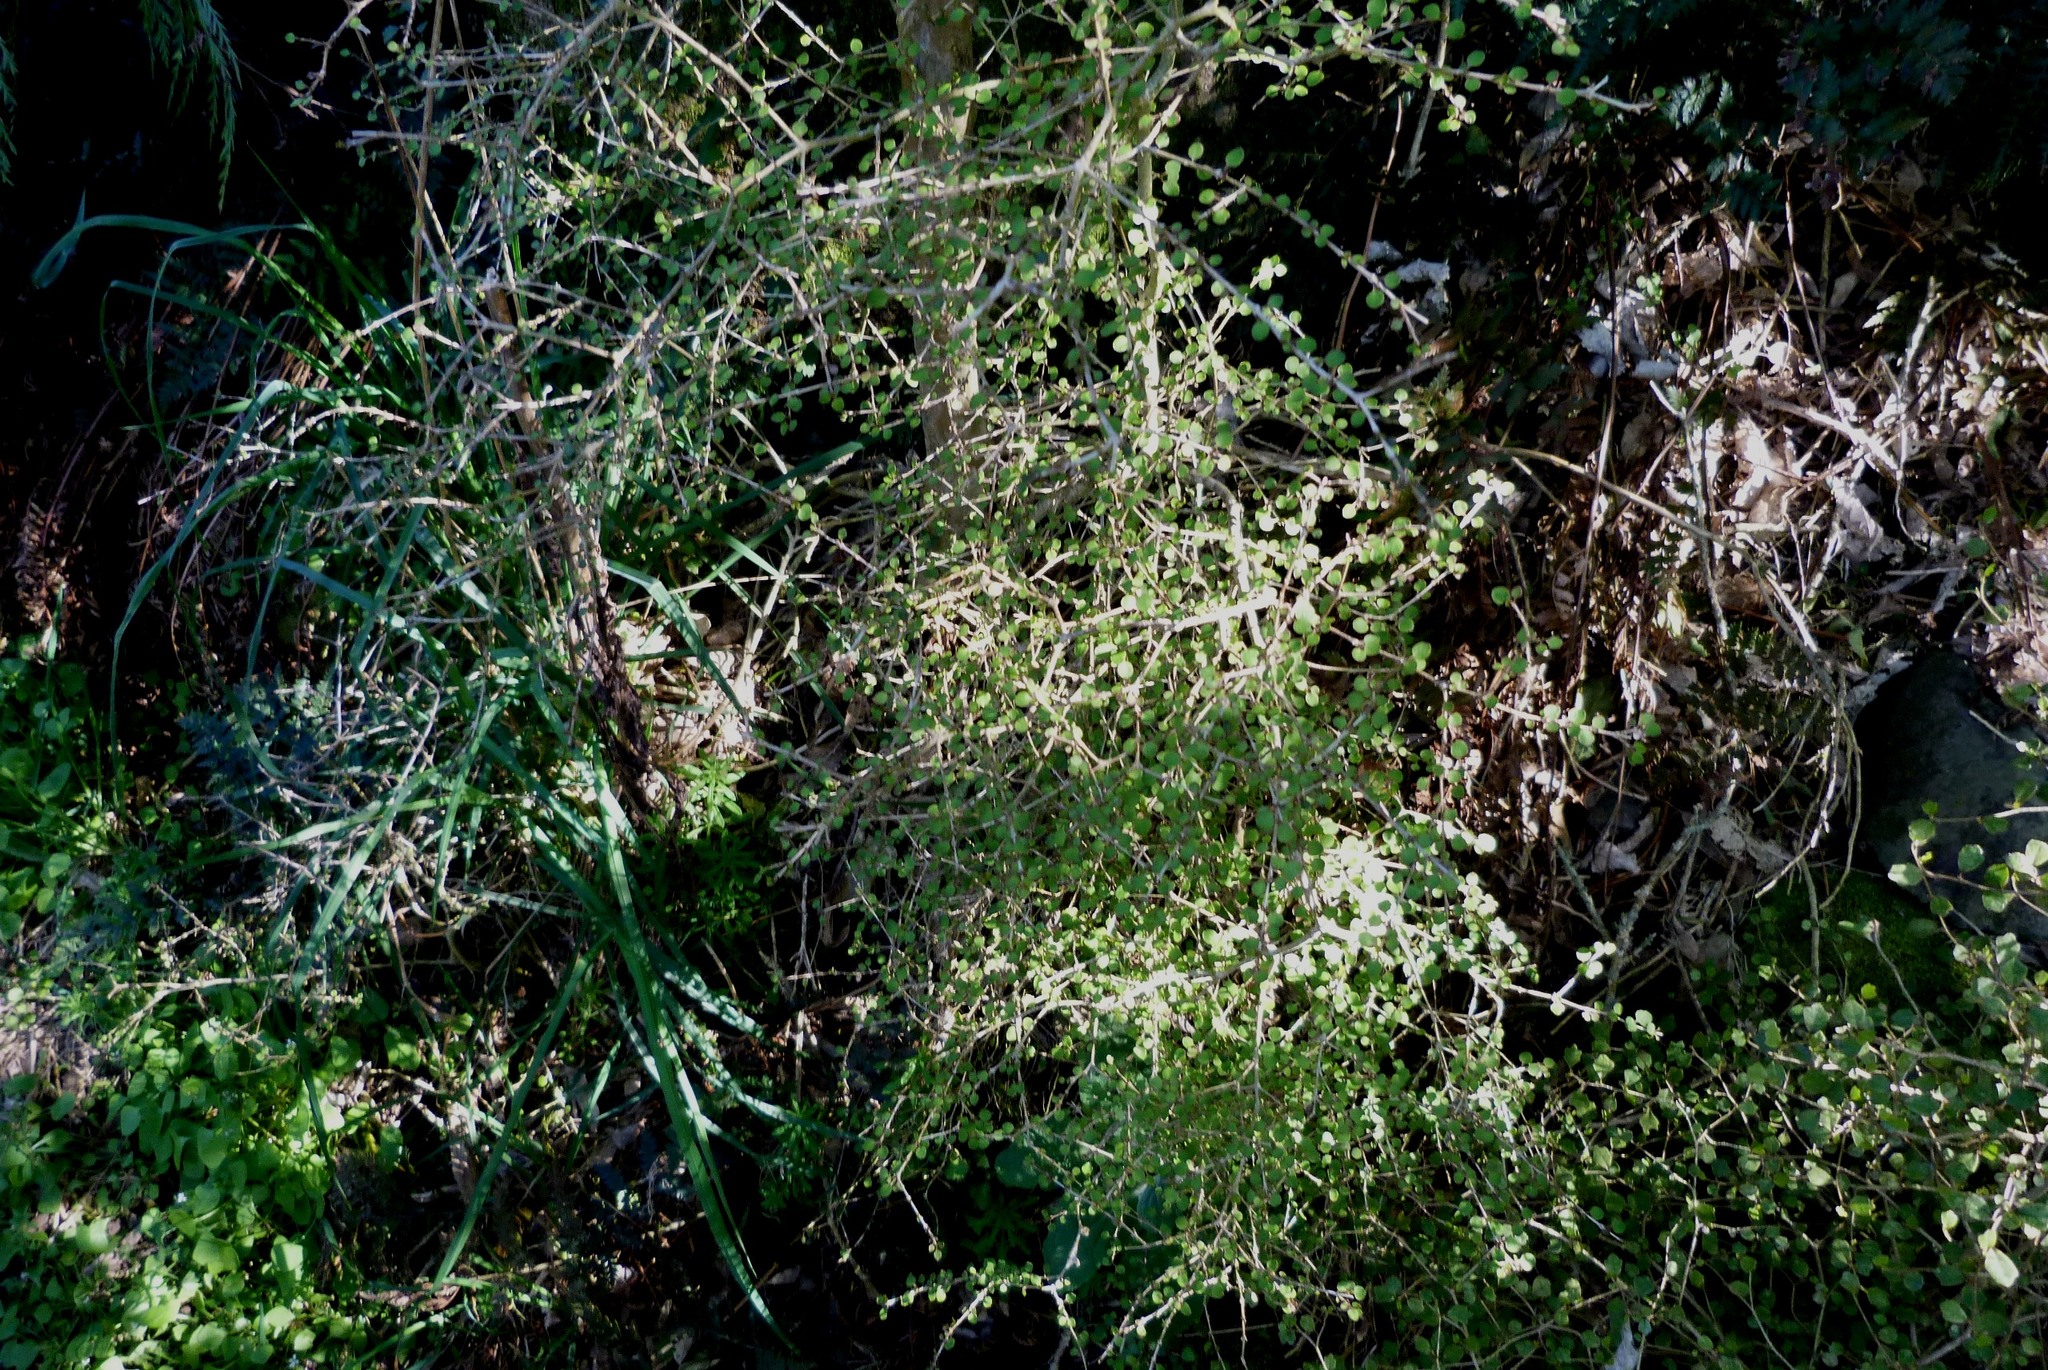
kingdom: Plantae
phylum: Tracheophyta
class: Magnoliopsida
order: Gentianales
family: Rubiaceae
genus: Coprosma
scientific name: Coprosma virescens
